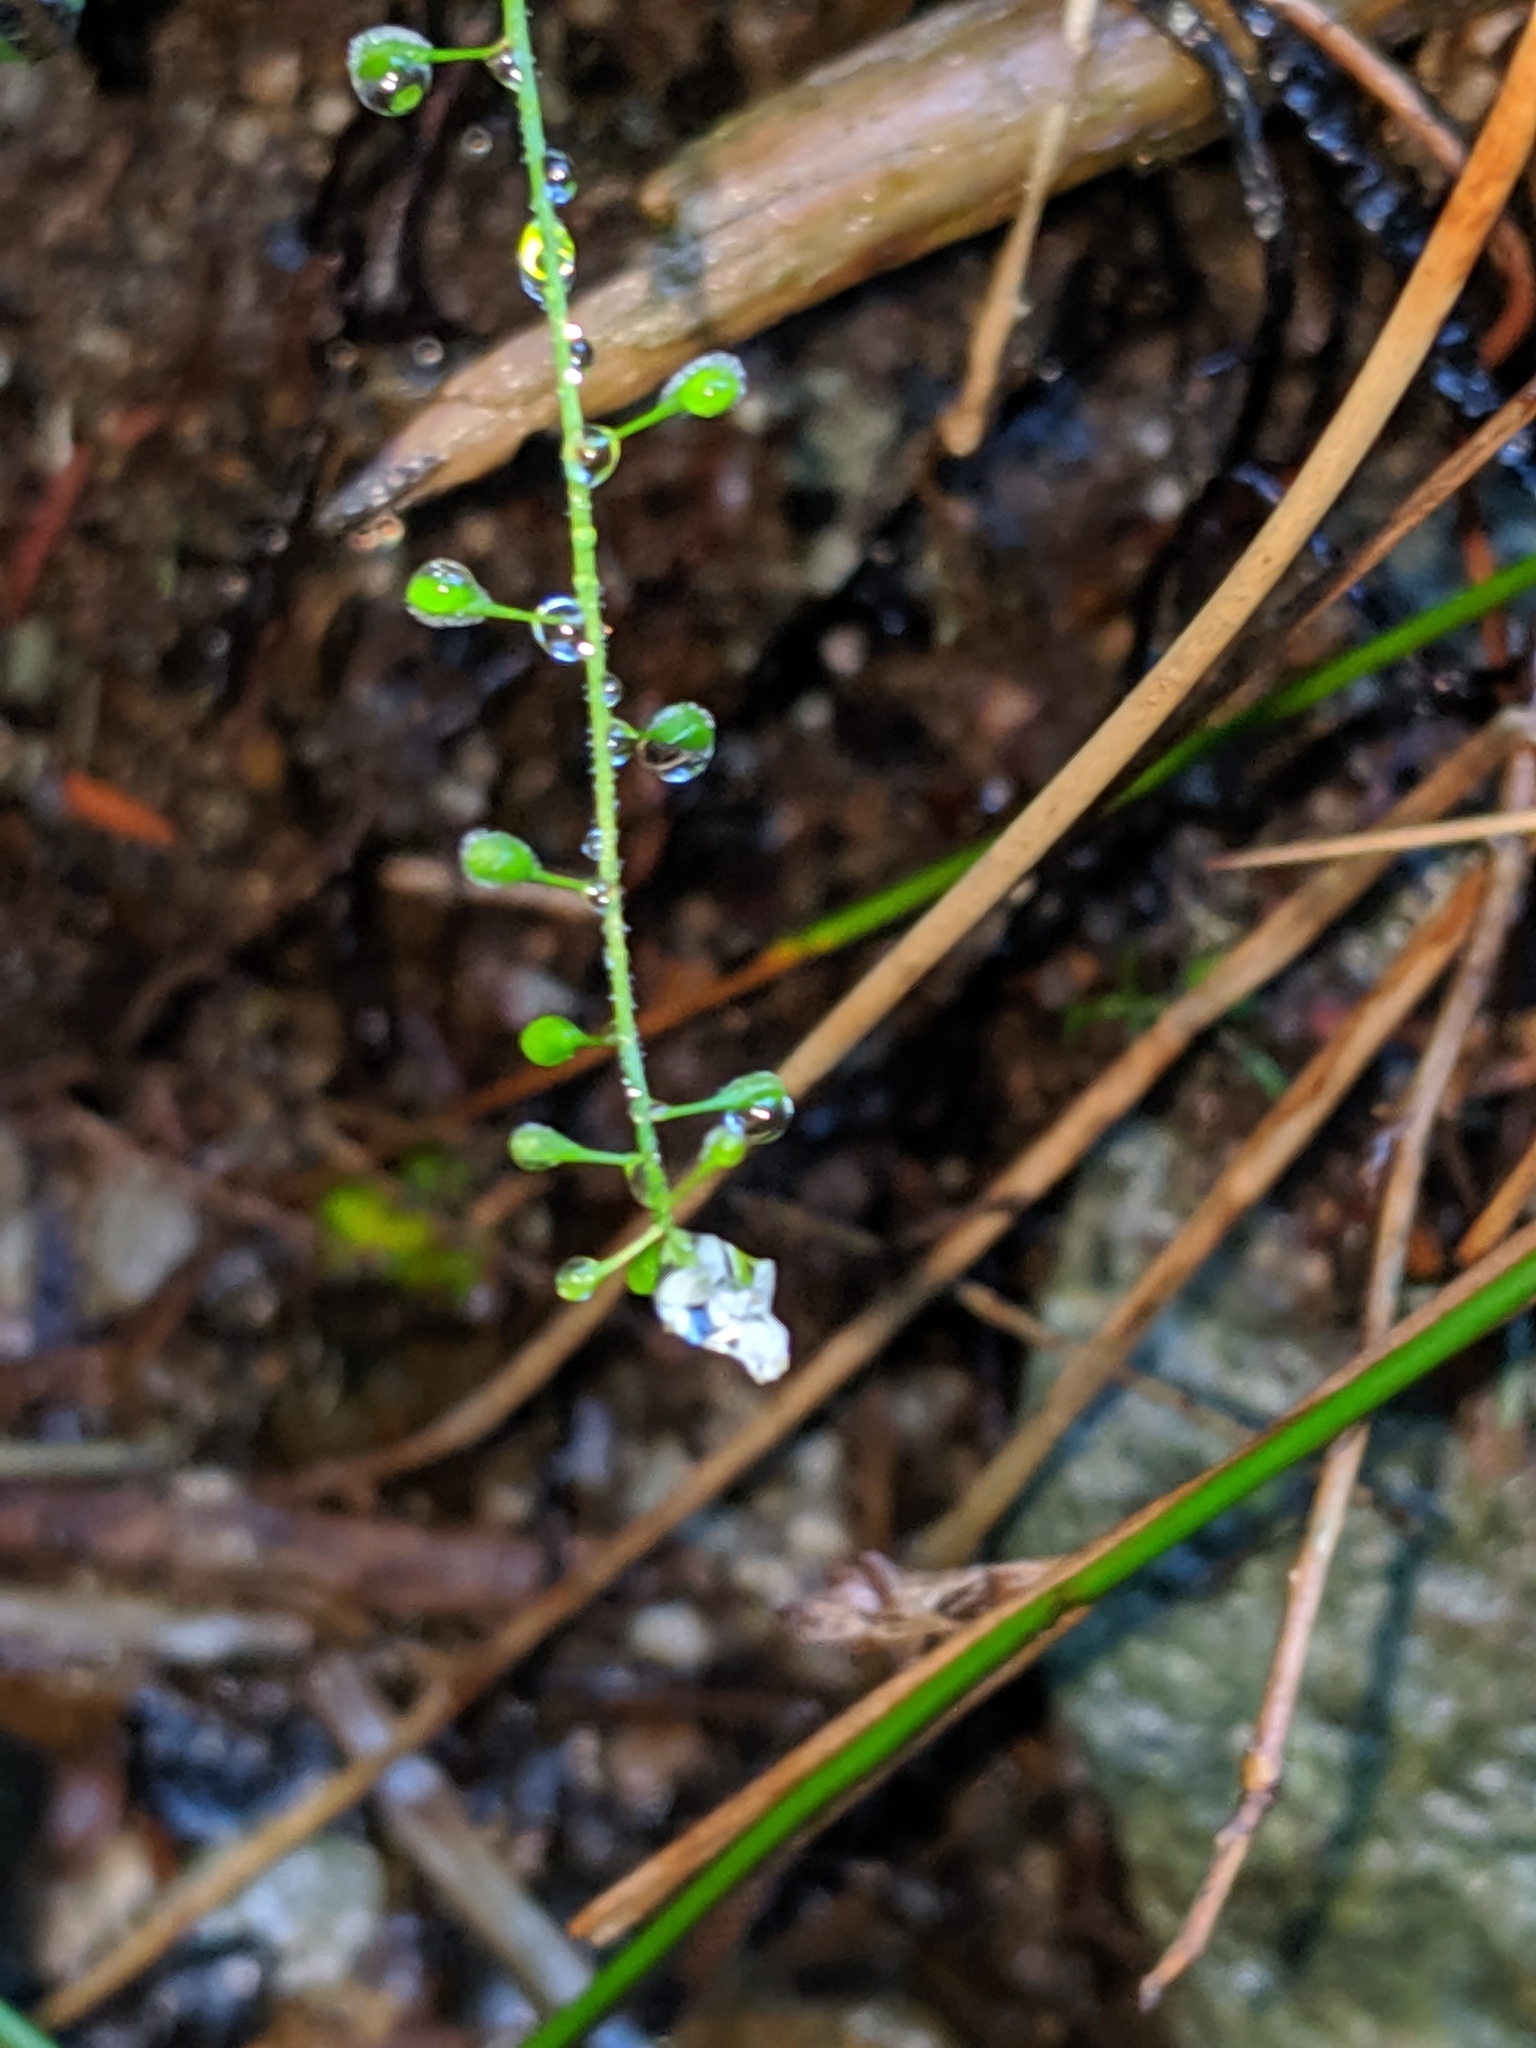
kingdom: Plantae
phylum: Tracheophyta
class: Magnoliopsida
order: Myrtales
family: Onagraceae
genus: Circaea
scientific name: Circaea alpina
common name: Alpine enchanter's-nightshade
